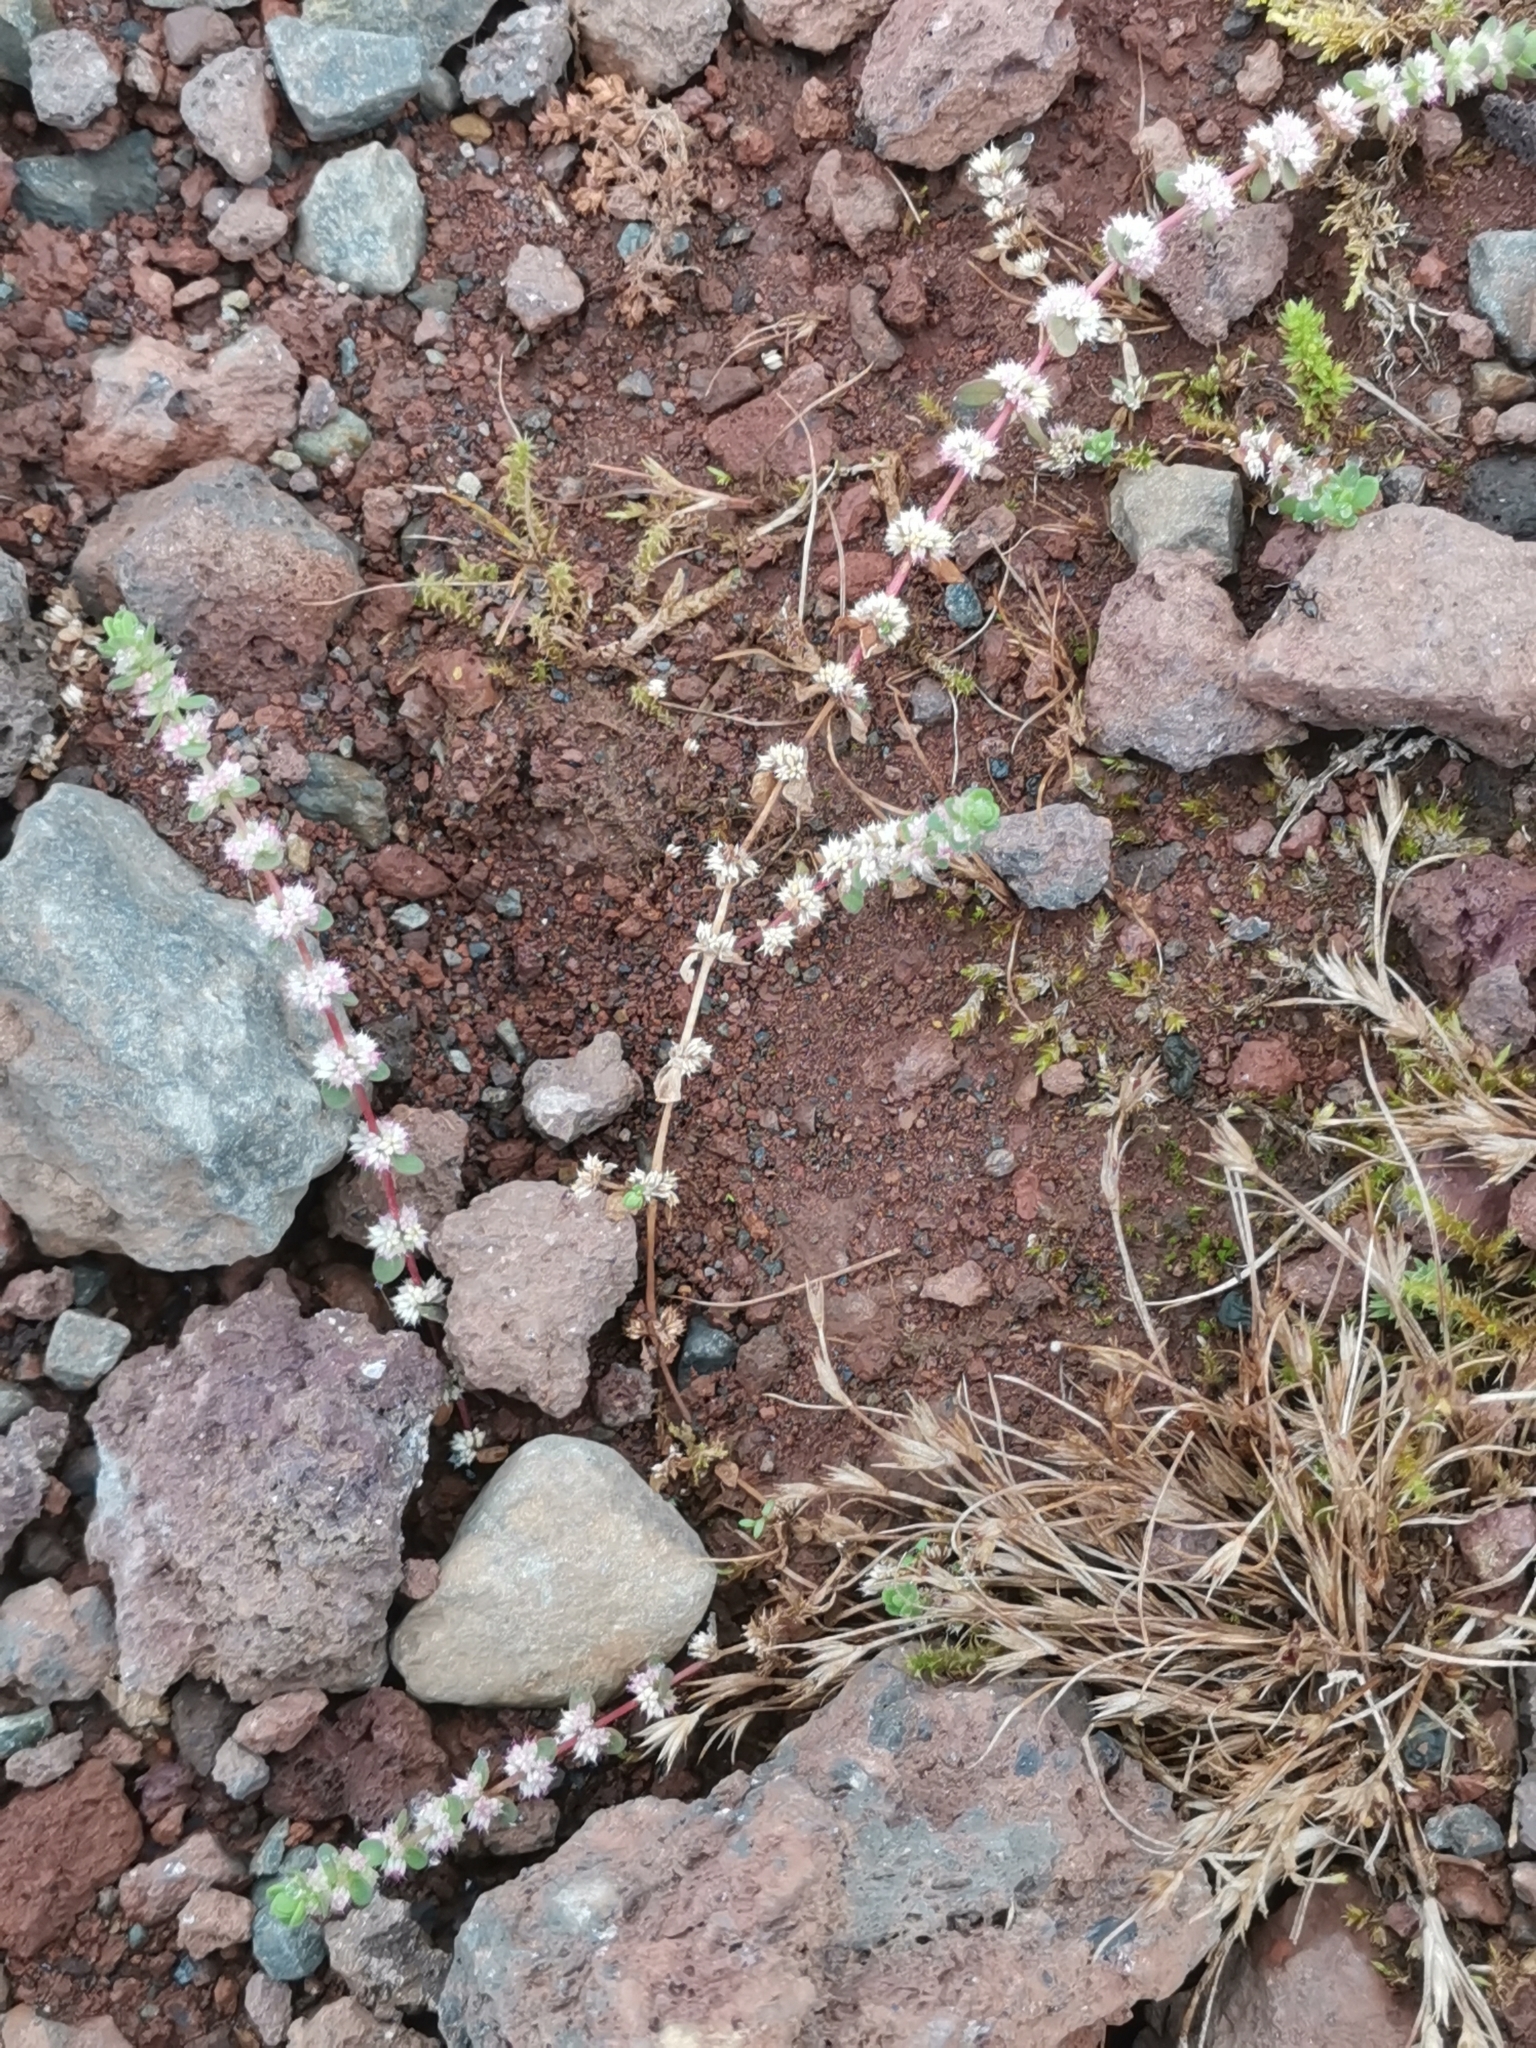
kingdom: Plantae
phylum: Tracheophyta
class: Magnoliopsida
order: Caryophyllales
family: Caryophyllaceae
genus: Illecebrum
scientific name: Illecebrum verticillatum
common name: Coral necklace
